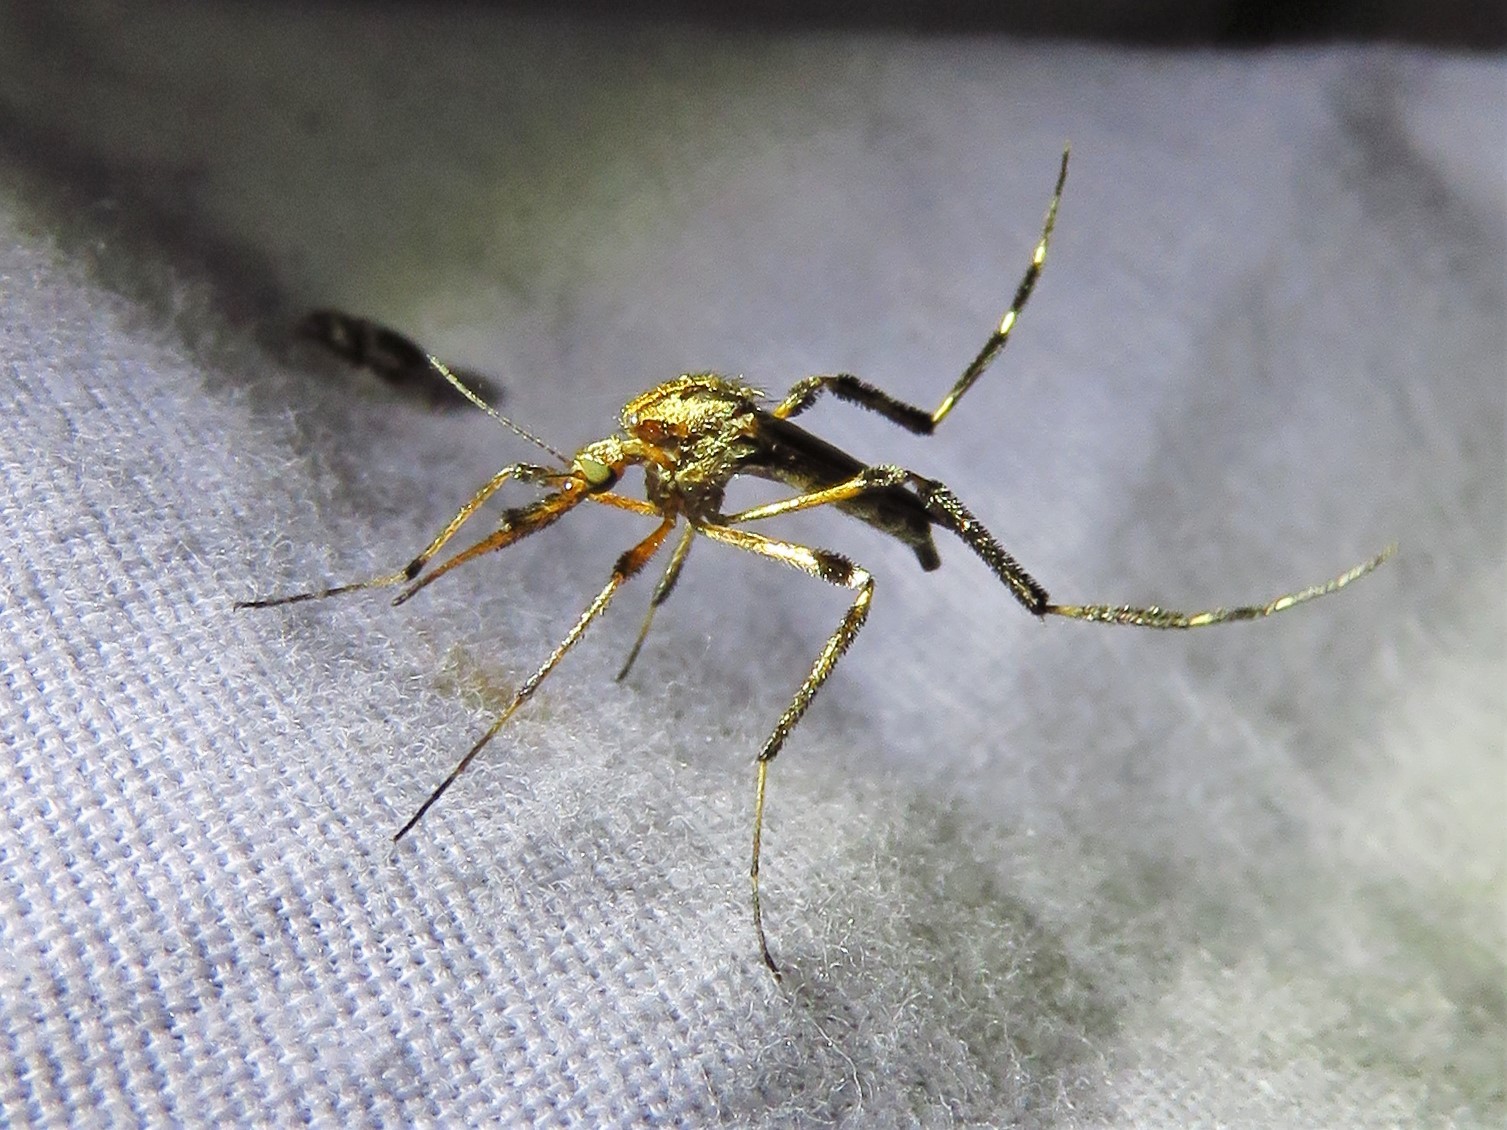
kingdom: Animalia
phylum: Arthropoda
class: Insecta
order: Diptera
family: Culicidae
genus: Psorophora
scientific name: Psorophora ciliata
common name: Gallinipper
